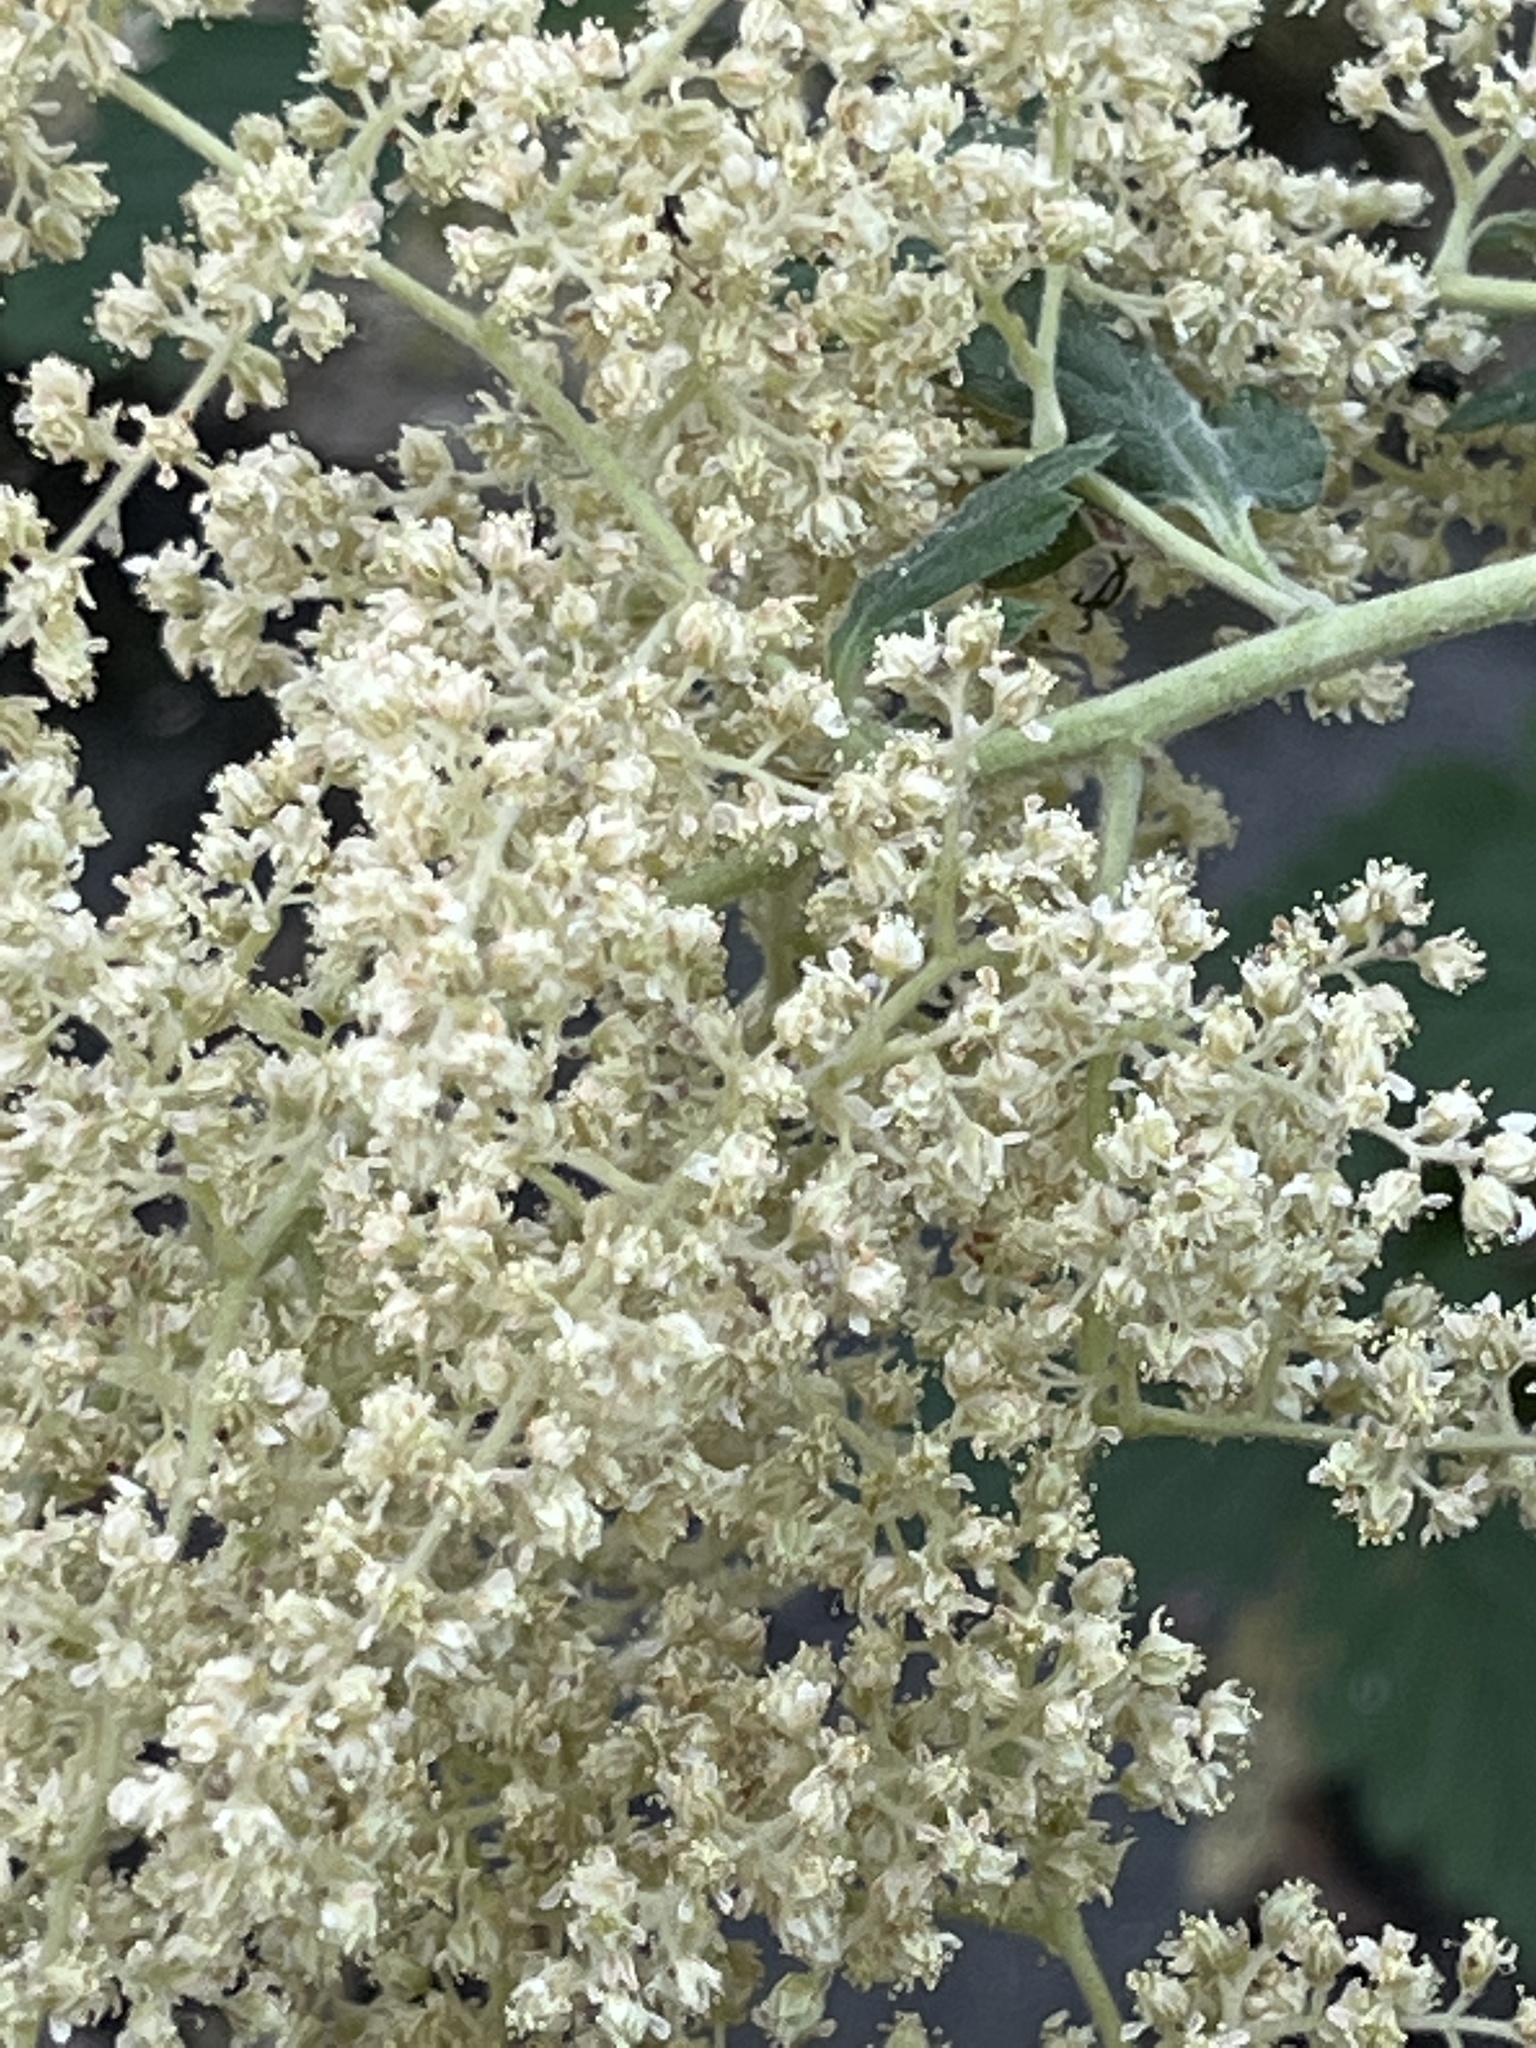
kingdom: Plantae
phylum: Tracheophyta
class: Magnoliopsida
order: Rosales
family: Rosaceae
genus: Holodiscus
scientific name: Holodiscus discolor
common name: Oceanspray
